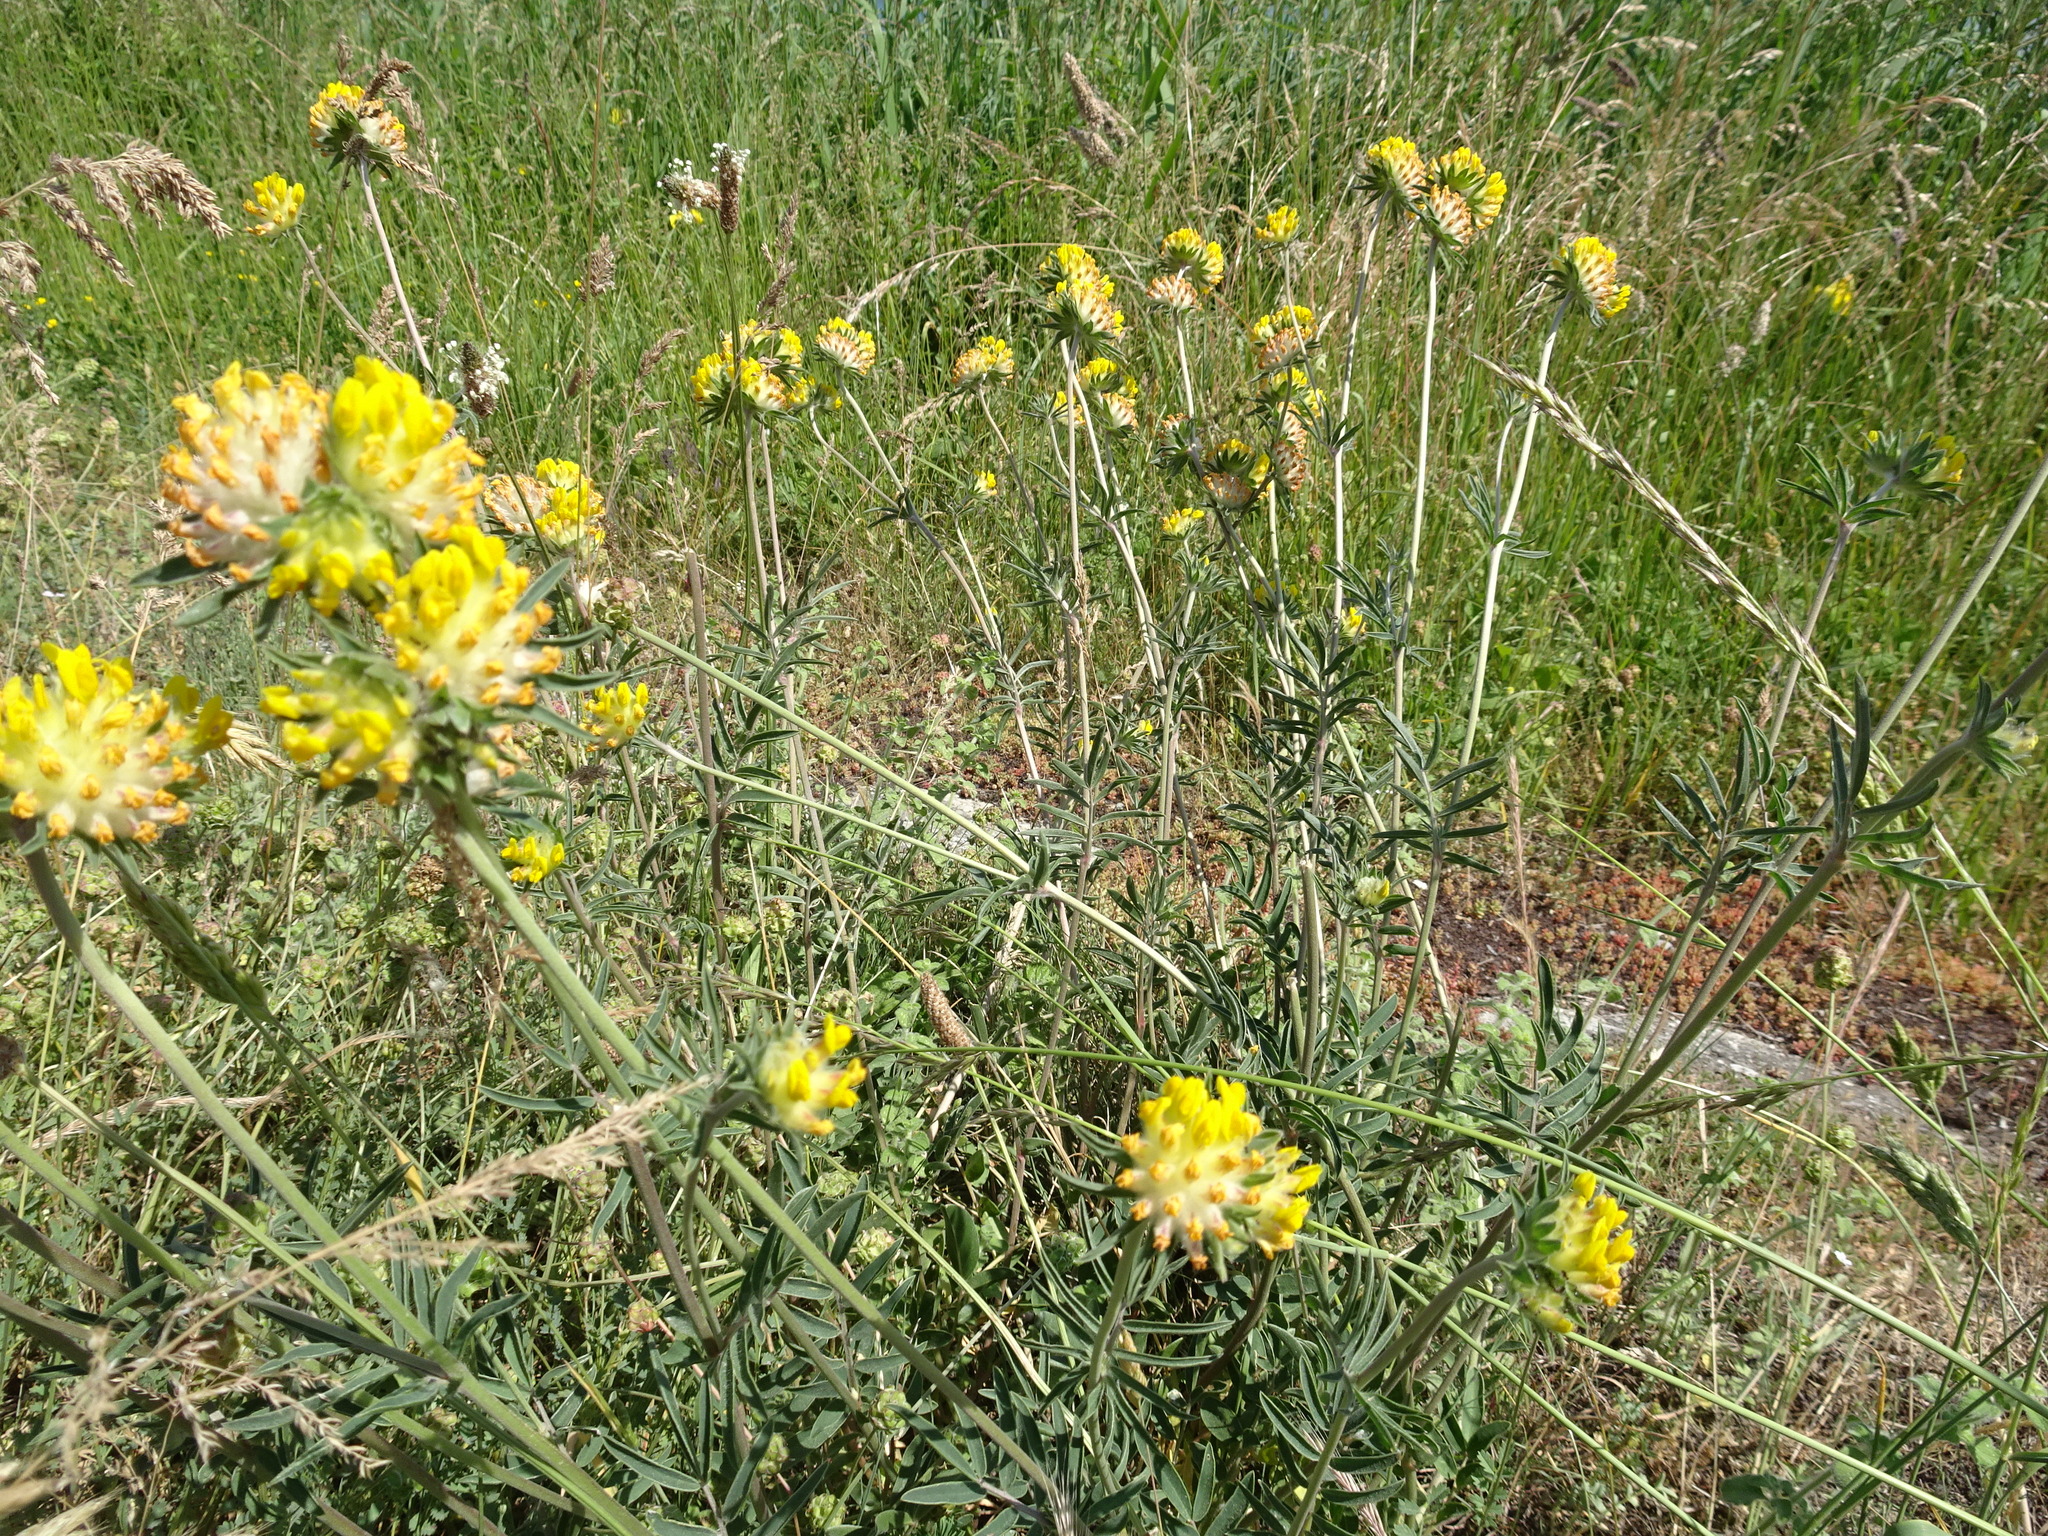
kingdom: Plantae
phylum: Tracheophyta
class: Magnoliopsida
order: Fabales
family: Fabaceae
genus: Anthyllis
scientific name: Anthyllis vulneraria
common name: Kidney vetch
